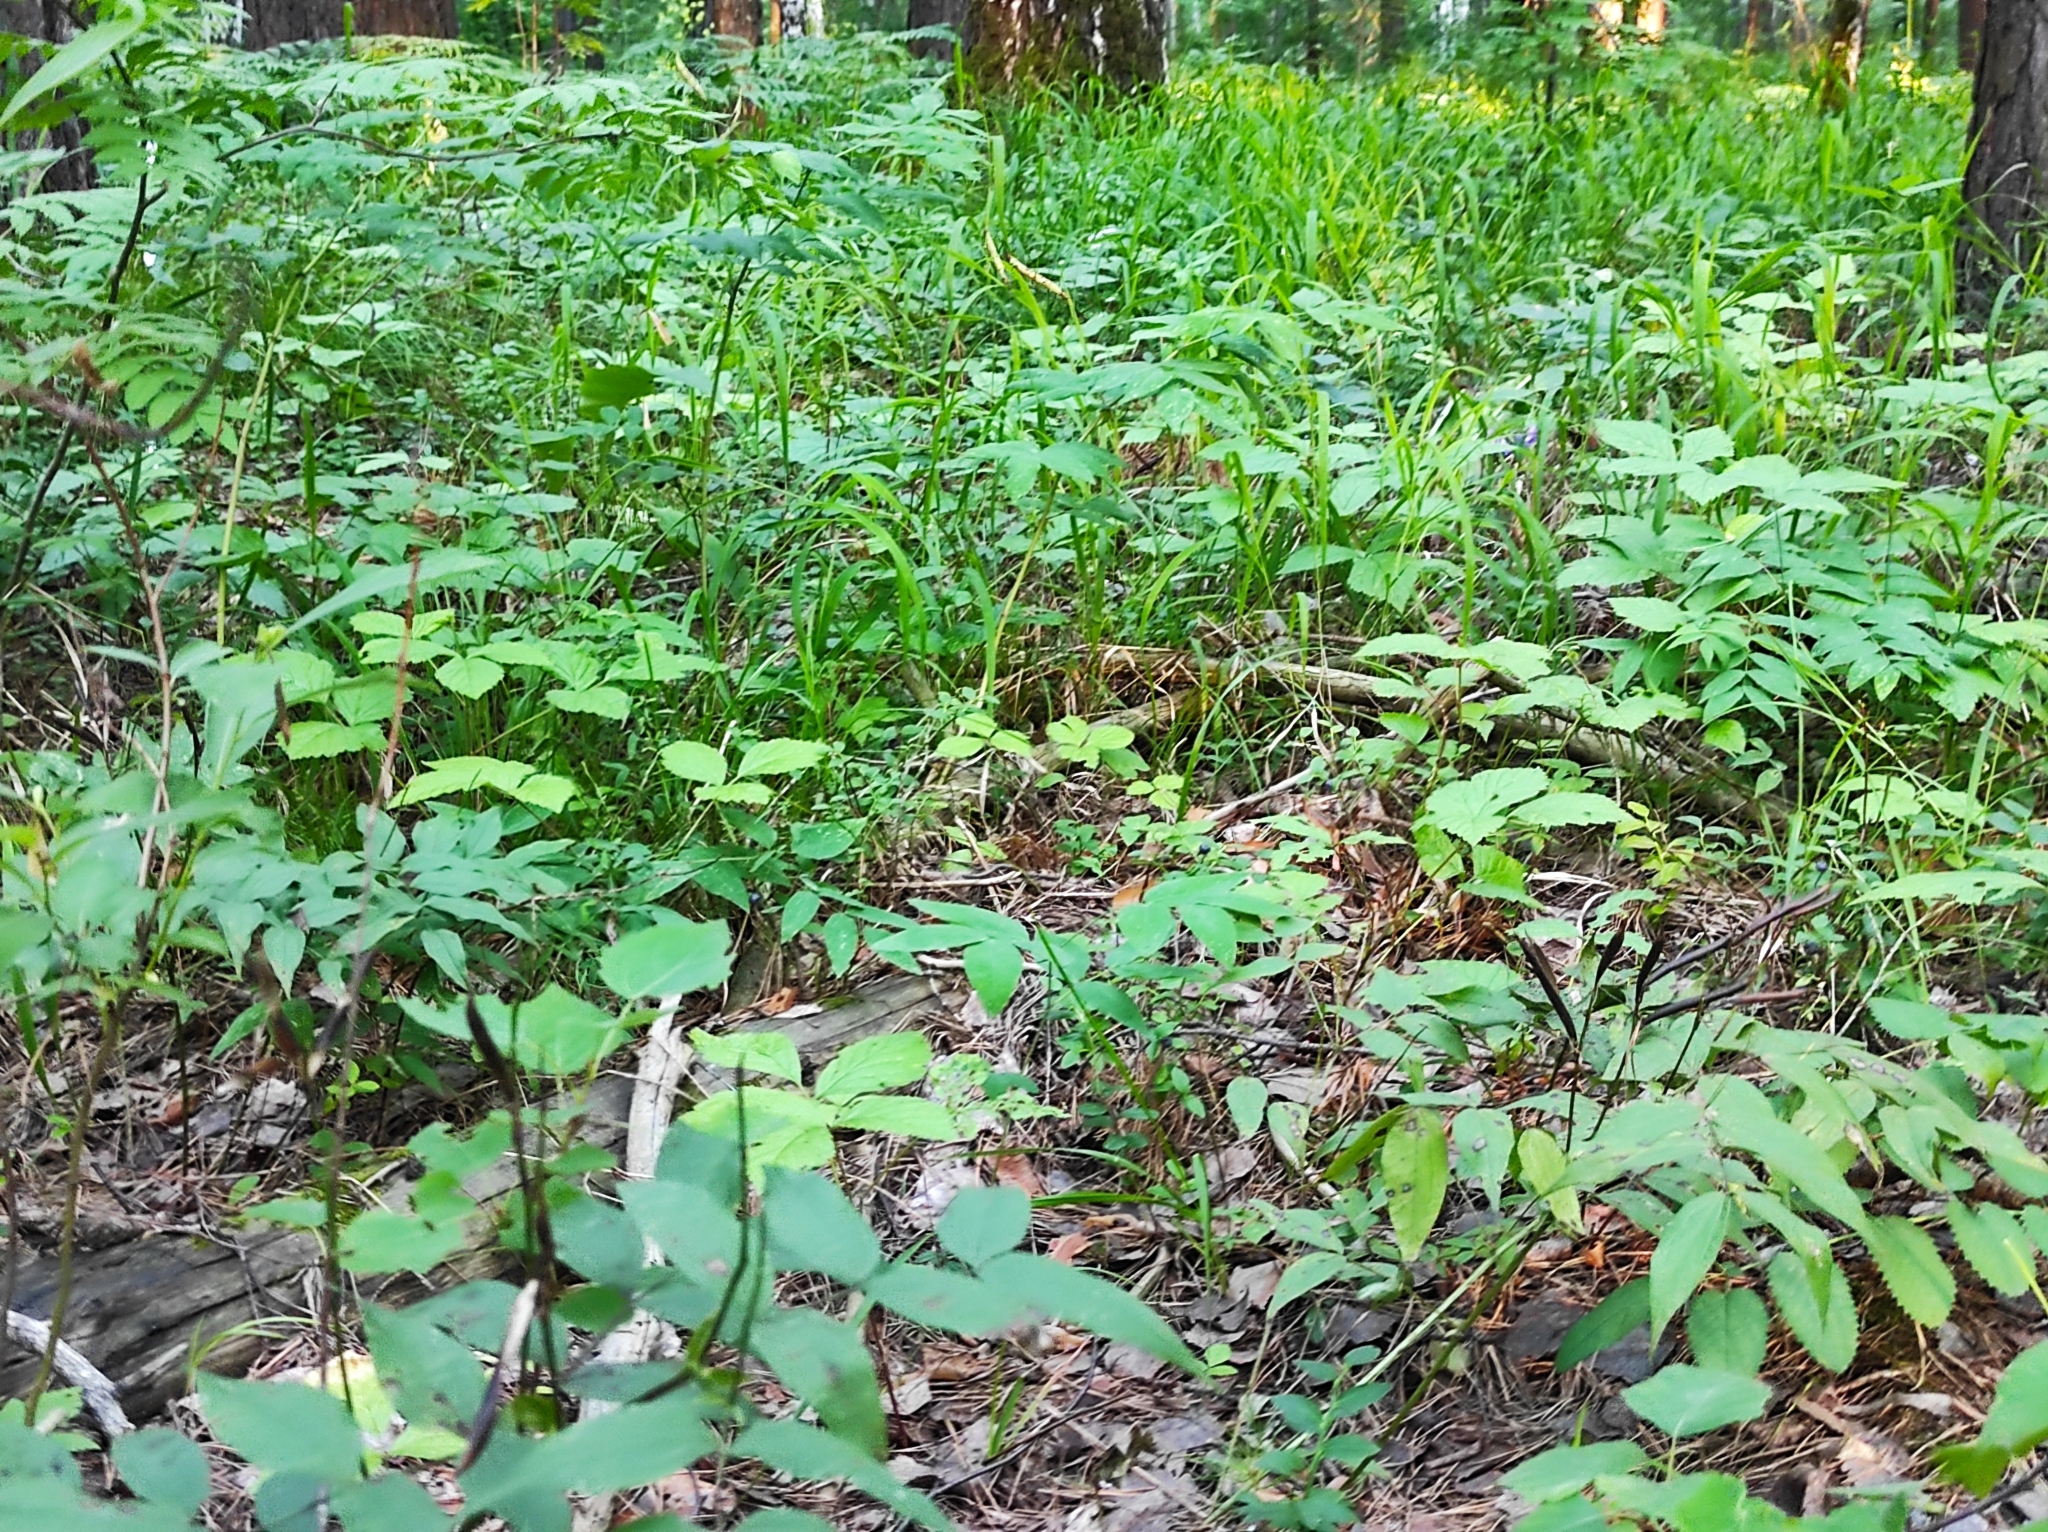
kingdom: Plantae
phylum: Tracheophyta
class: Magnoliopsida
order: Ericales
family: Ericaceae
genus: Vaccinium
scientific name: Vaccinium myrtillus
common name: Bilberry
